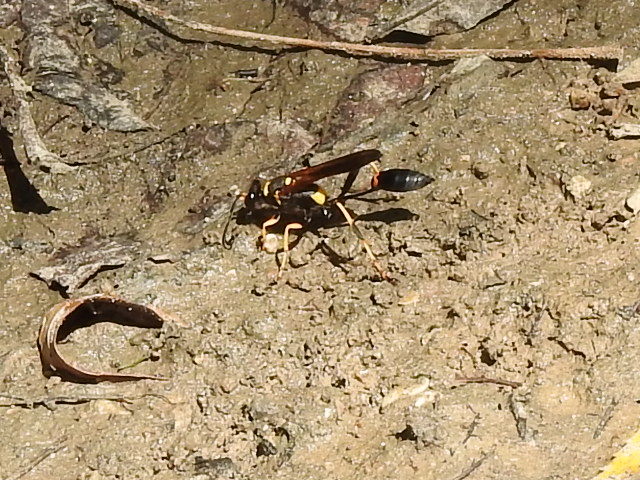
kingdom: Animalia
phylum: Arthropoda
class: Insecta
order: Hymenoptera
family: Sphecidae
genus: Sceliphron
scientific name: Sceliphron caementarium
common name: Mud dauber
